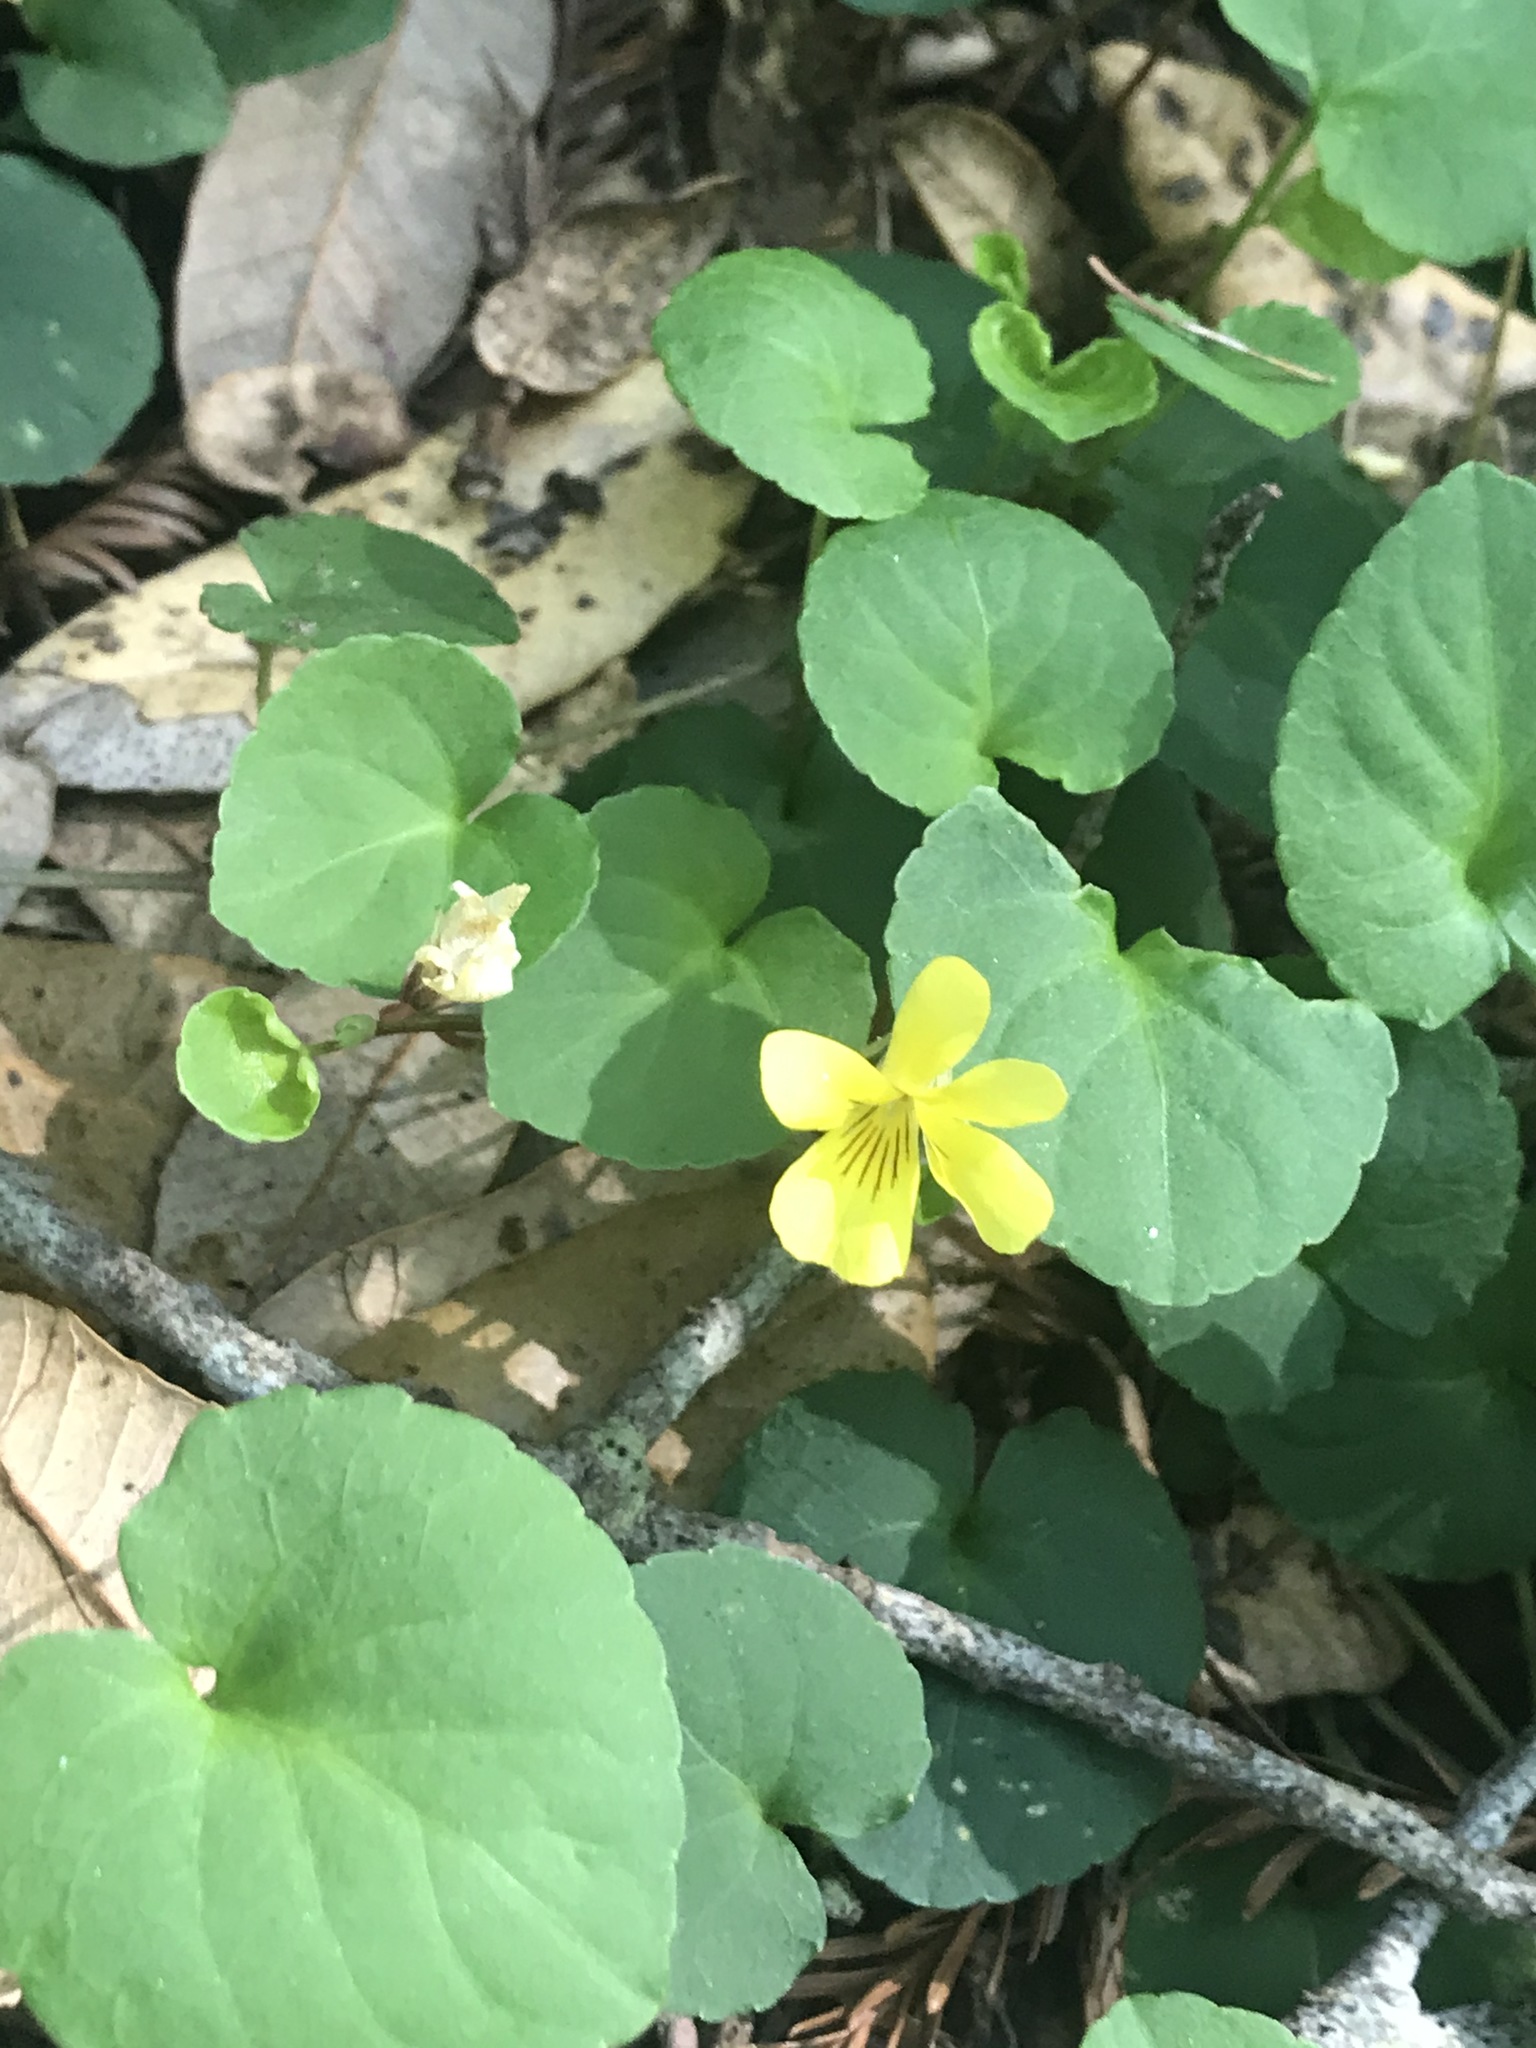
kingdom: Plantae
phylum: Tracheophyta
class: Magnoliopsida
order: Malpighiales
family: Violaceae
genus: Viola
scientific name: Viola sempervirens
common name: Evergreen violet
